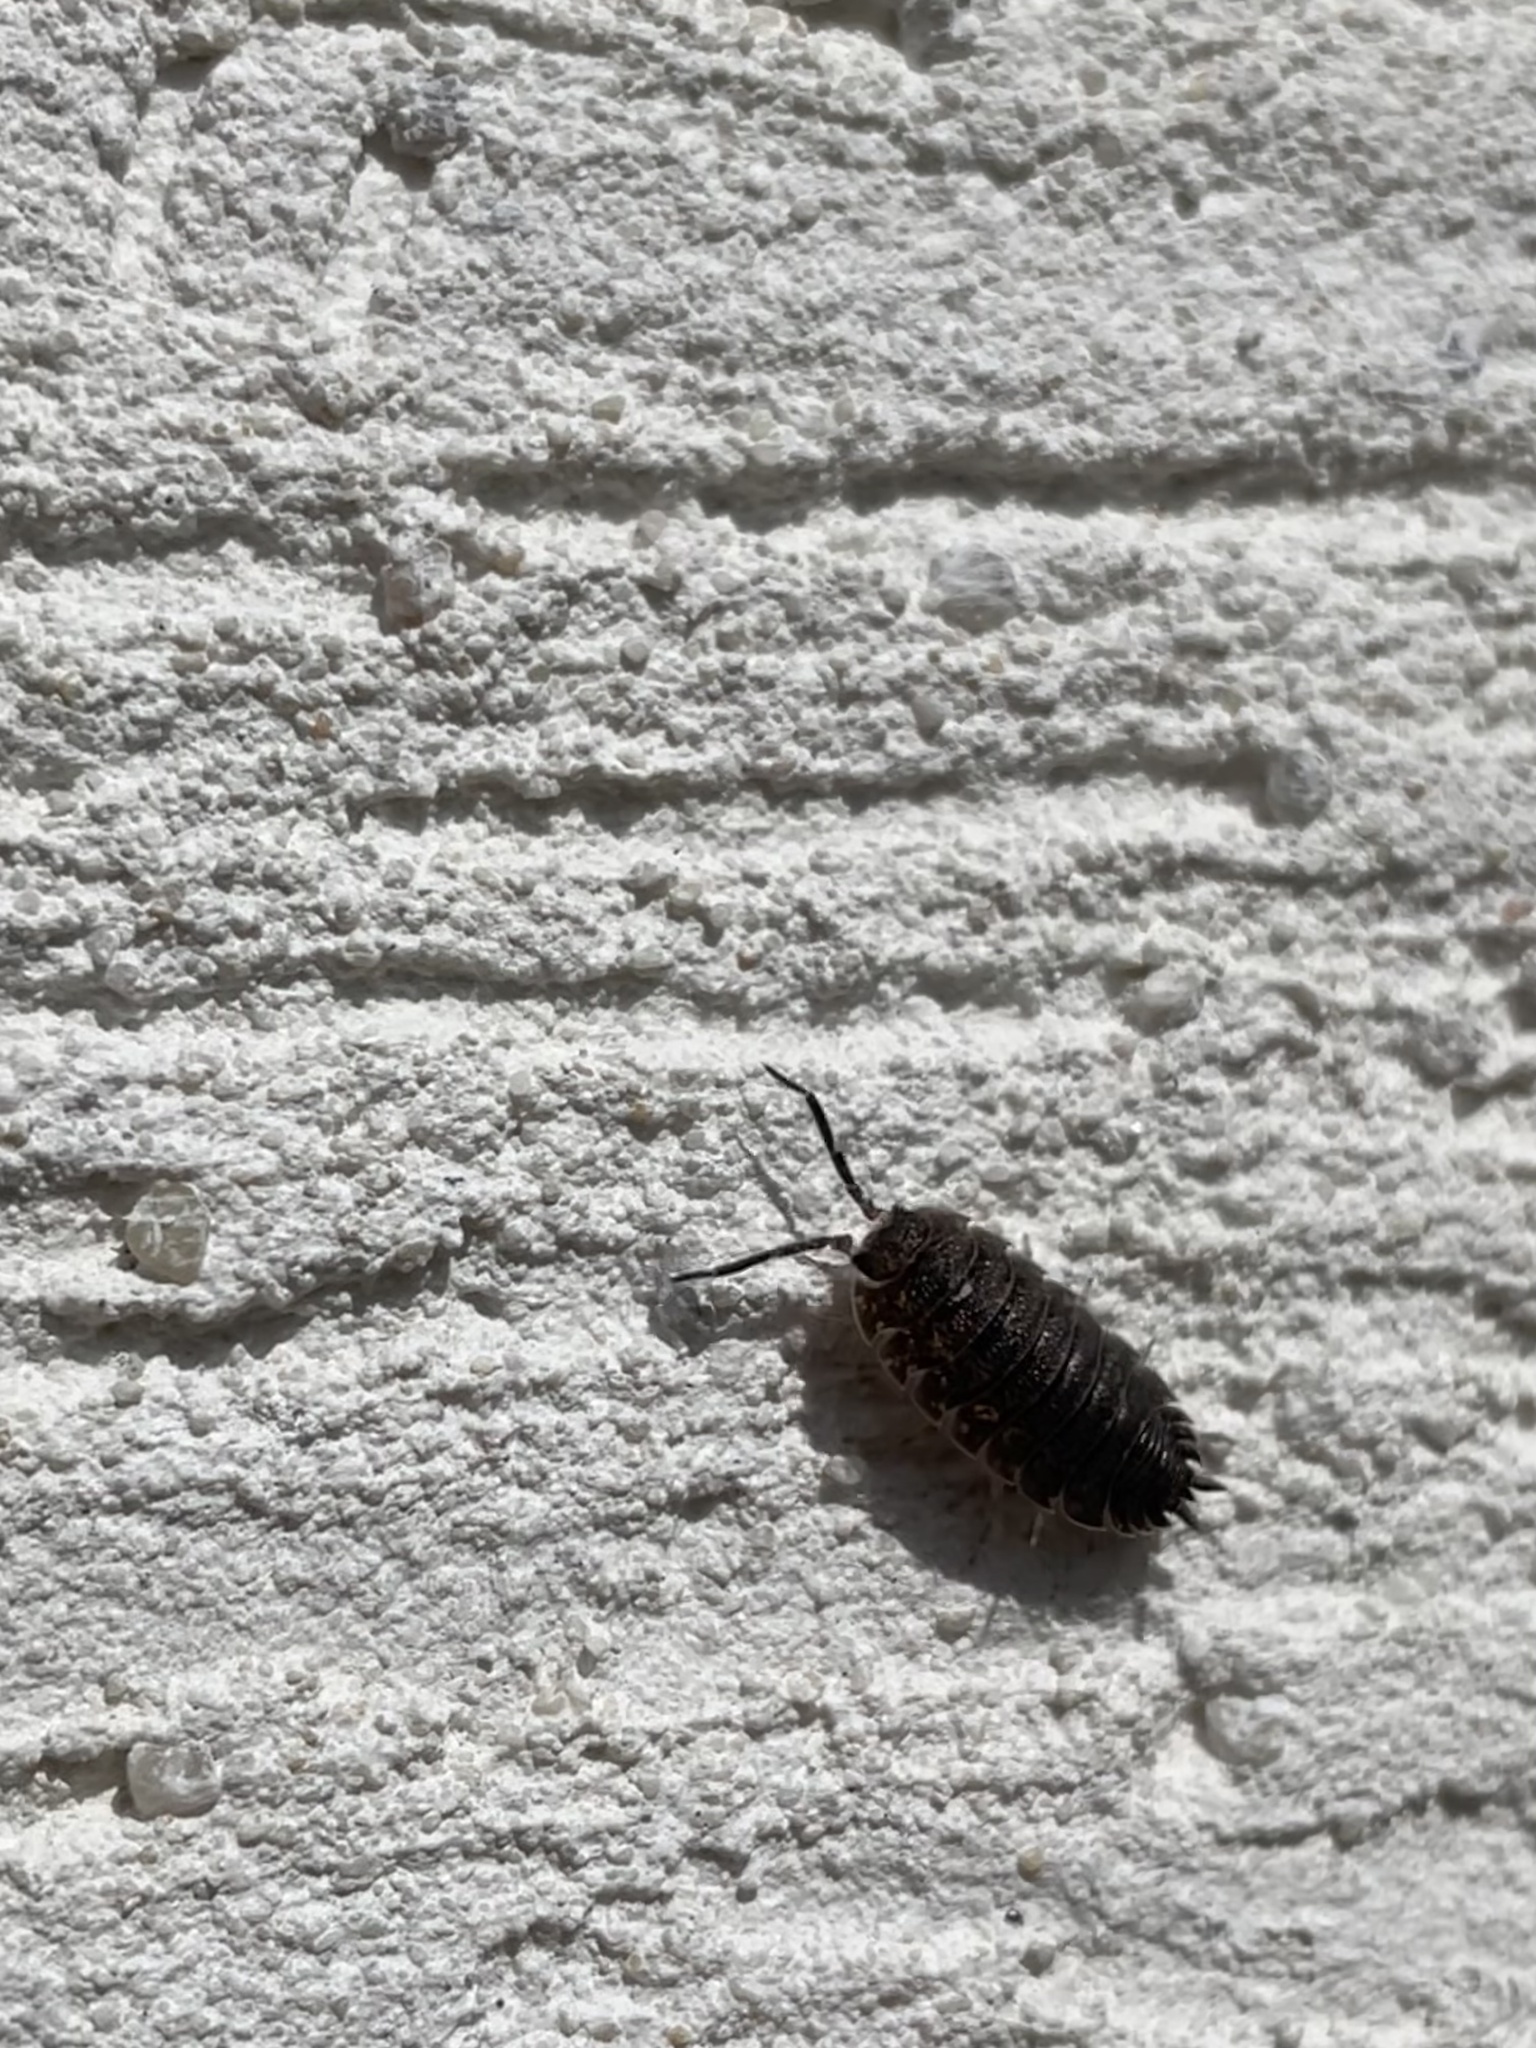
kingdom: Animalia
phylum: Arthropoda
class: Malacostraca
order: Isopoda
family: Porcellionidae
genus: Porcellio
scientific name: Porcellio scaber
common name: Common rough woodlouse
